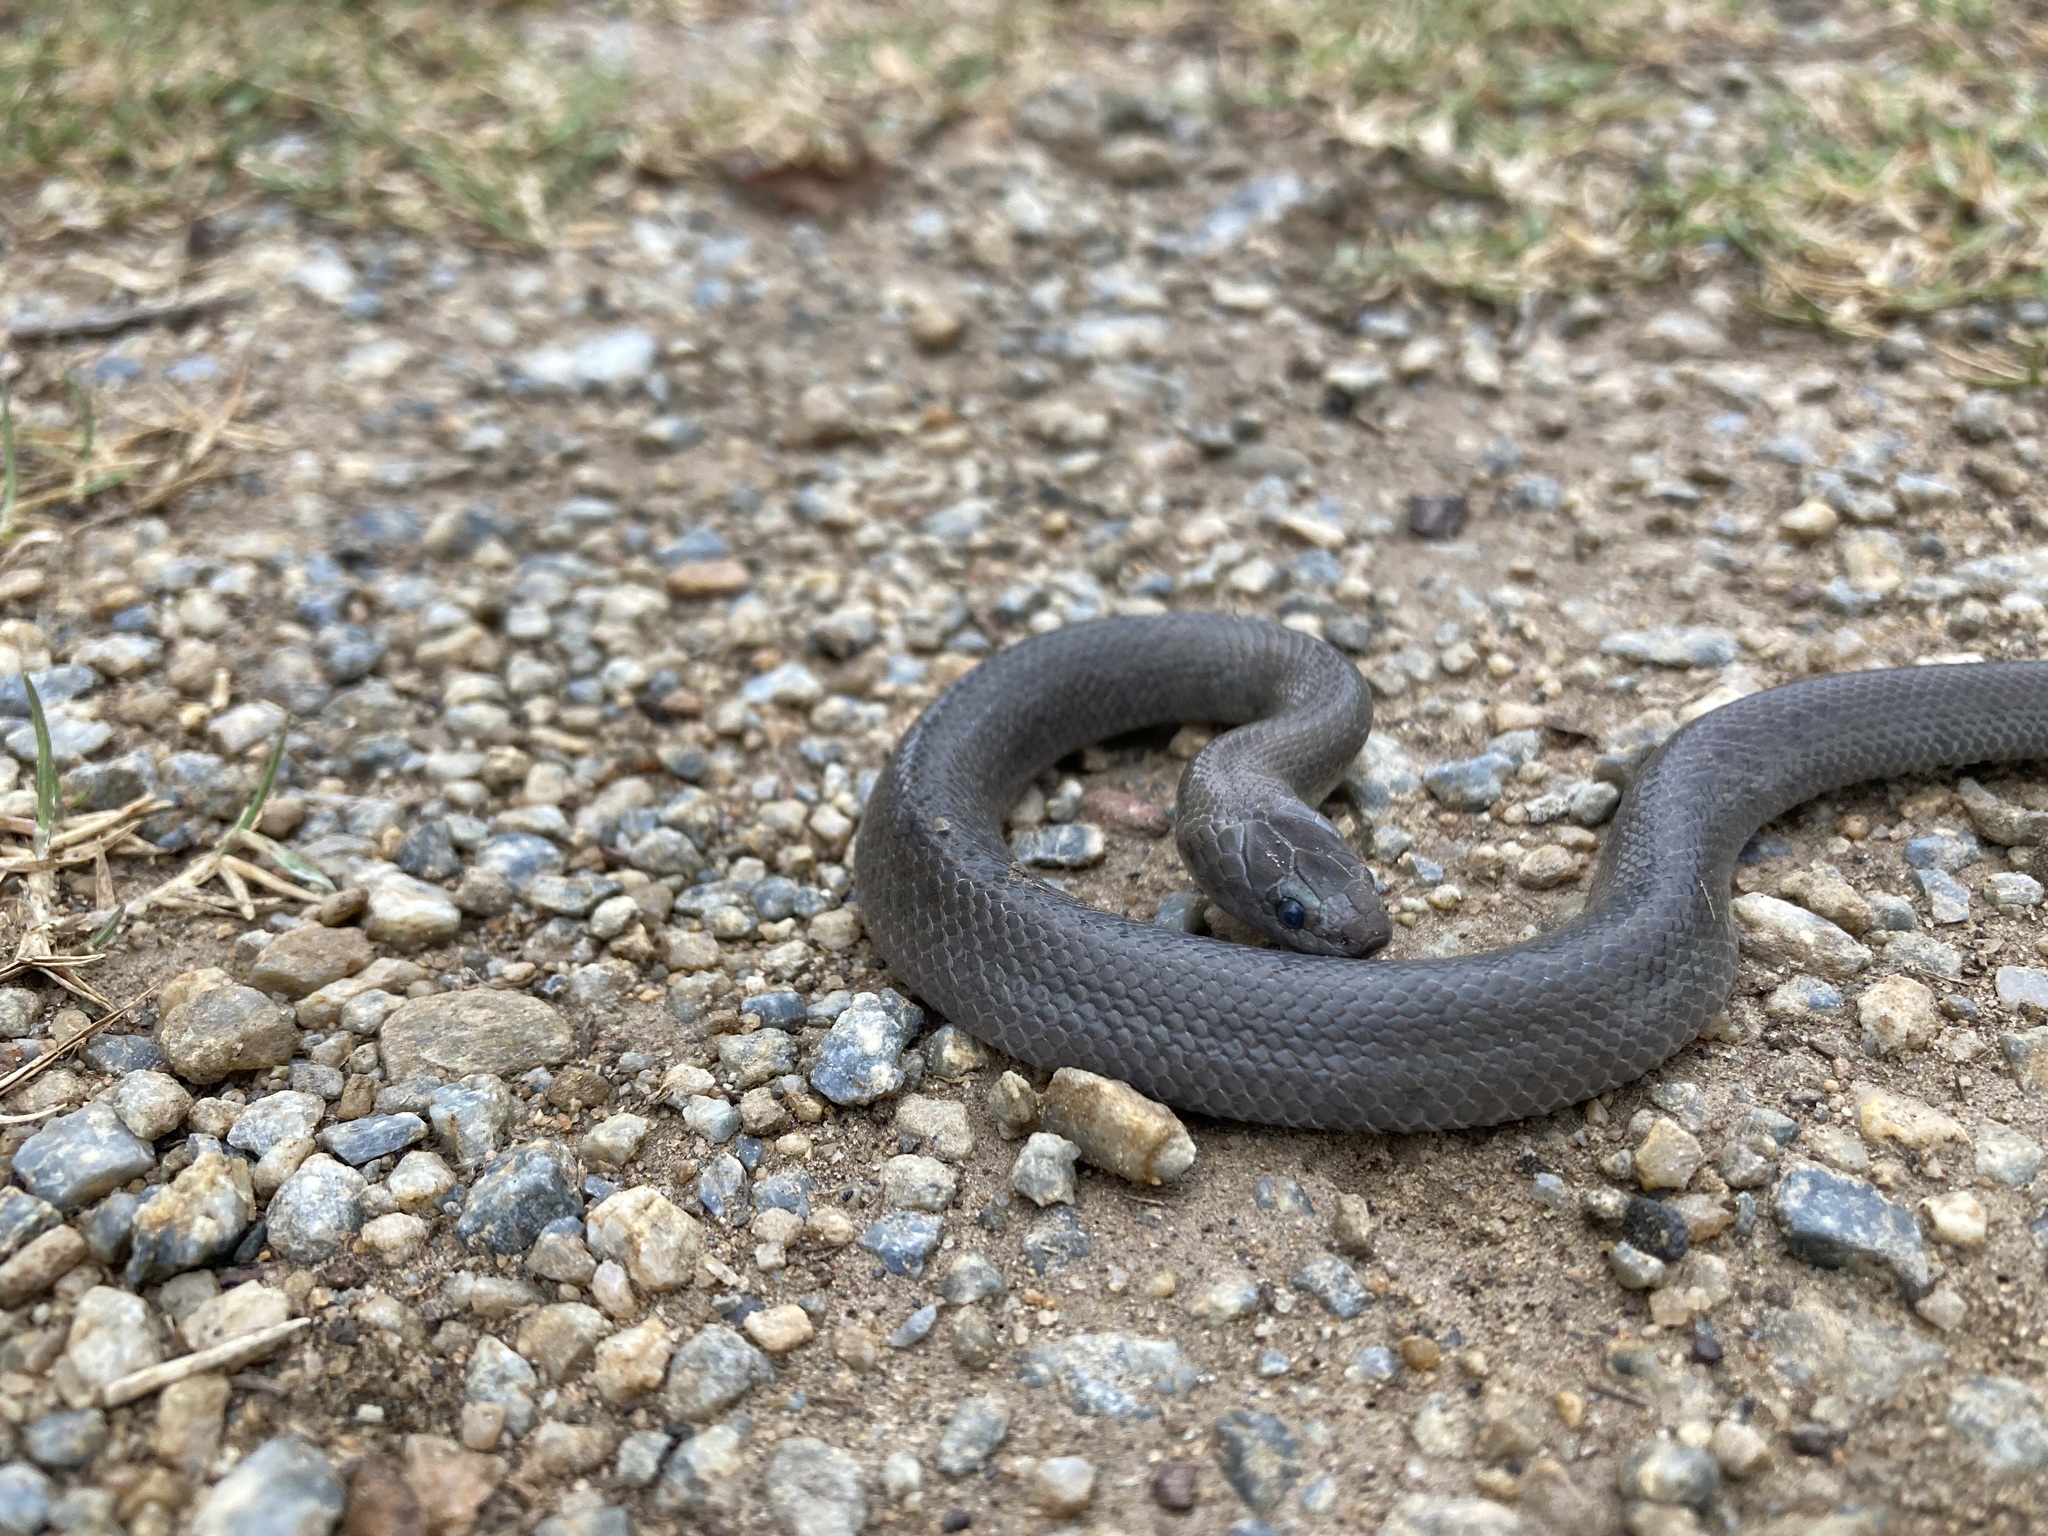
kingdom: Animalia
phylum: Chordata
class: Squamata
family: Lamprophiidae
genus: Lycodonomorphus
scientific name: Lycodonomorphus inornatus
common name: Black house snake
